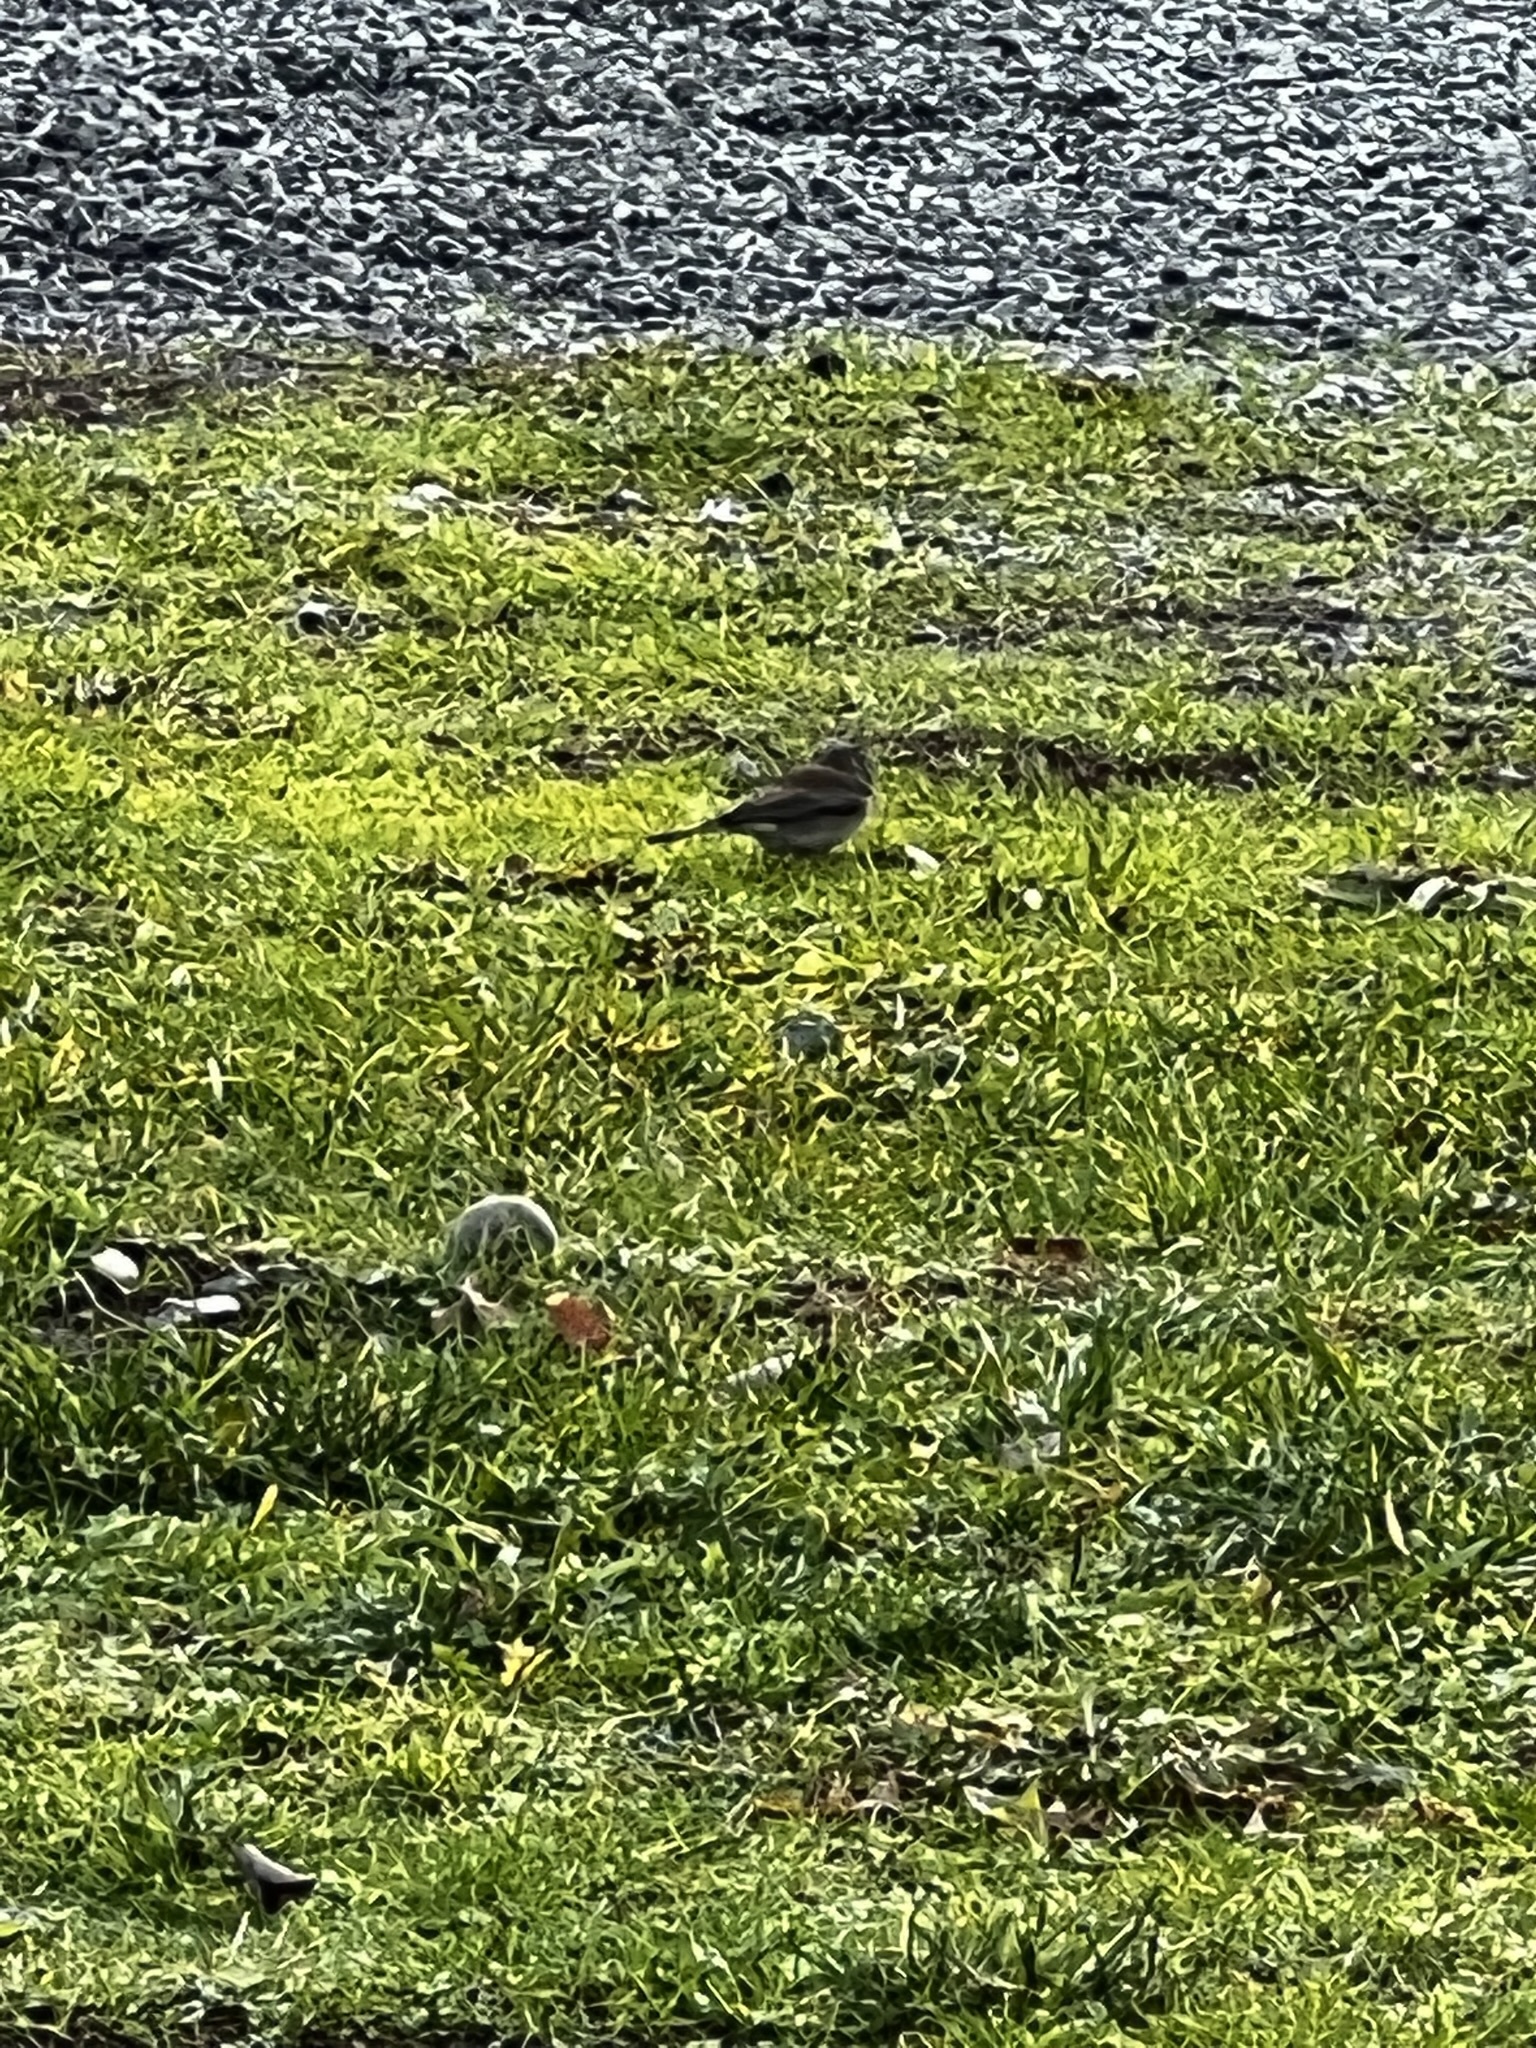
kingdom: Animalia
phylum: Chordata
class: Aves
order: Passeriformes
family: Passerellidae
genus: Junco
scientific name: Junco hyemalis
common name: Dark-eyed junco
